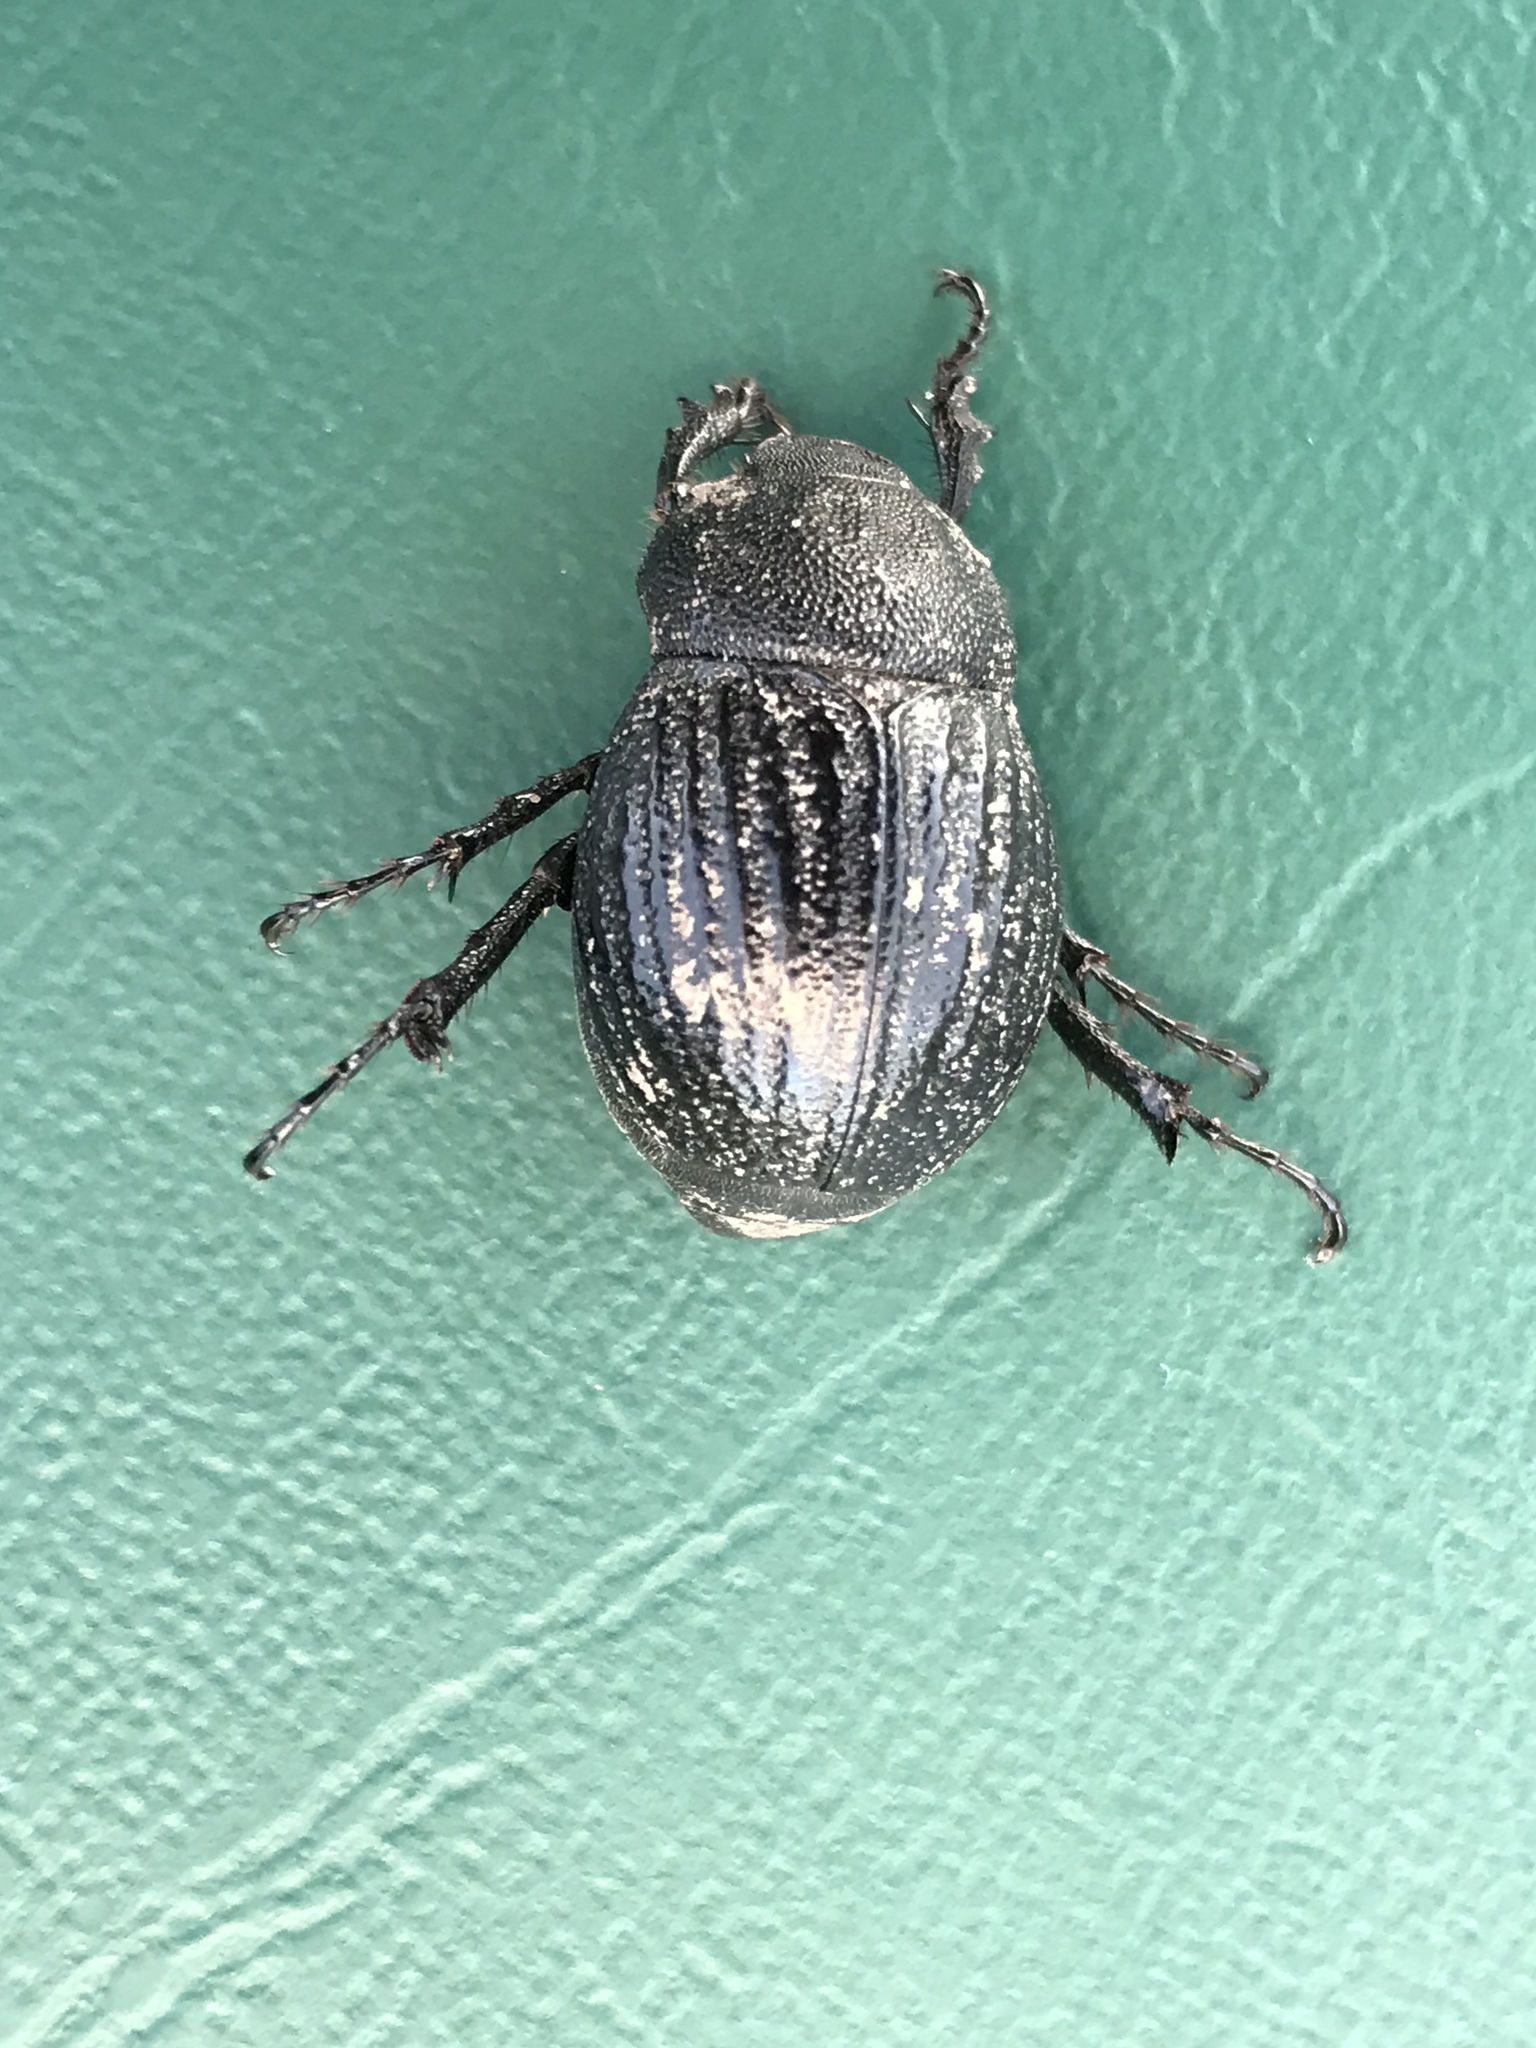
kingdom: Animalia
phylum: Arthropoda
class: Insecta
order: Coleoptera
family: Scarabaeidae
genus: Phyllophaga
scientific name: Phyllophaga cribrosa
